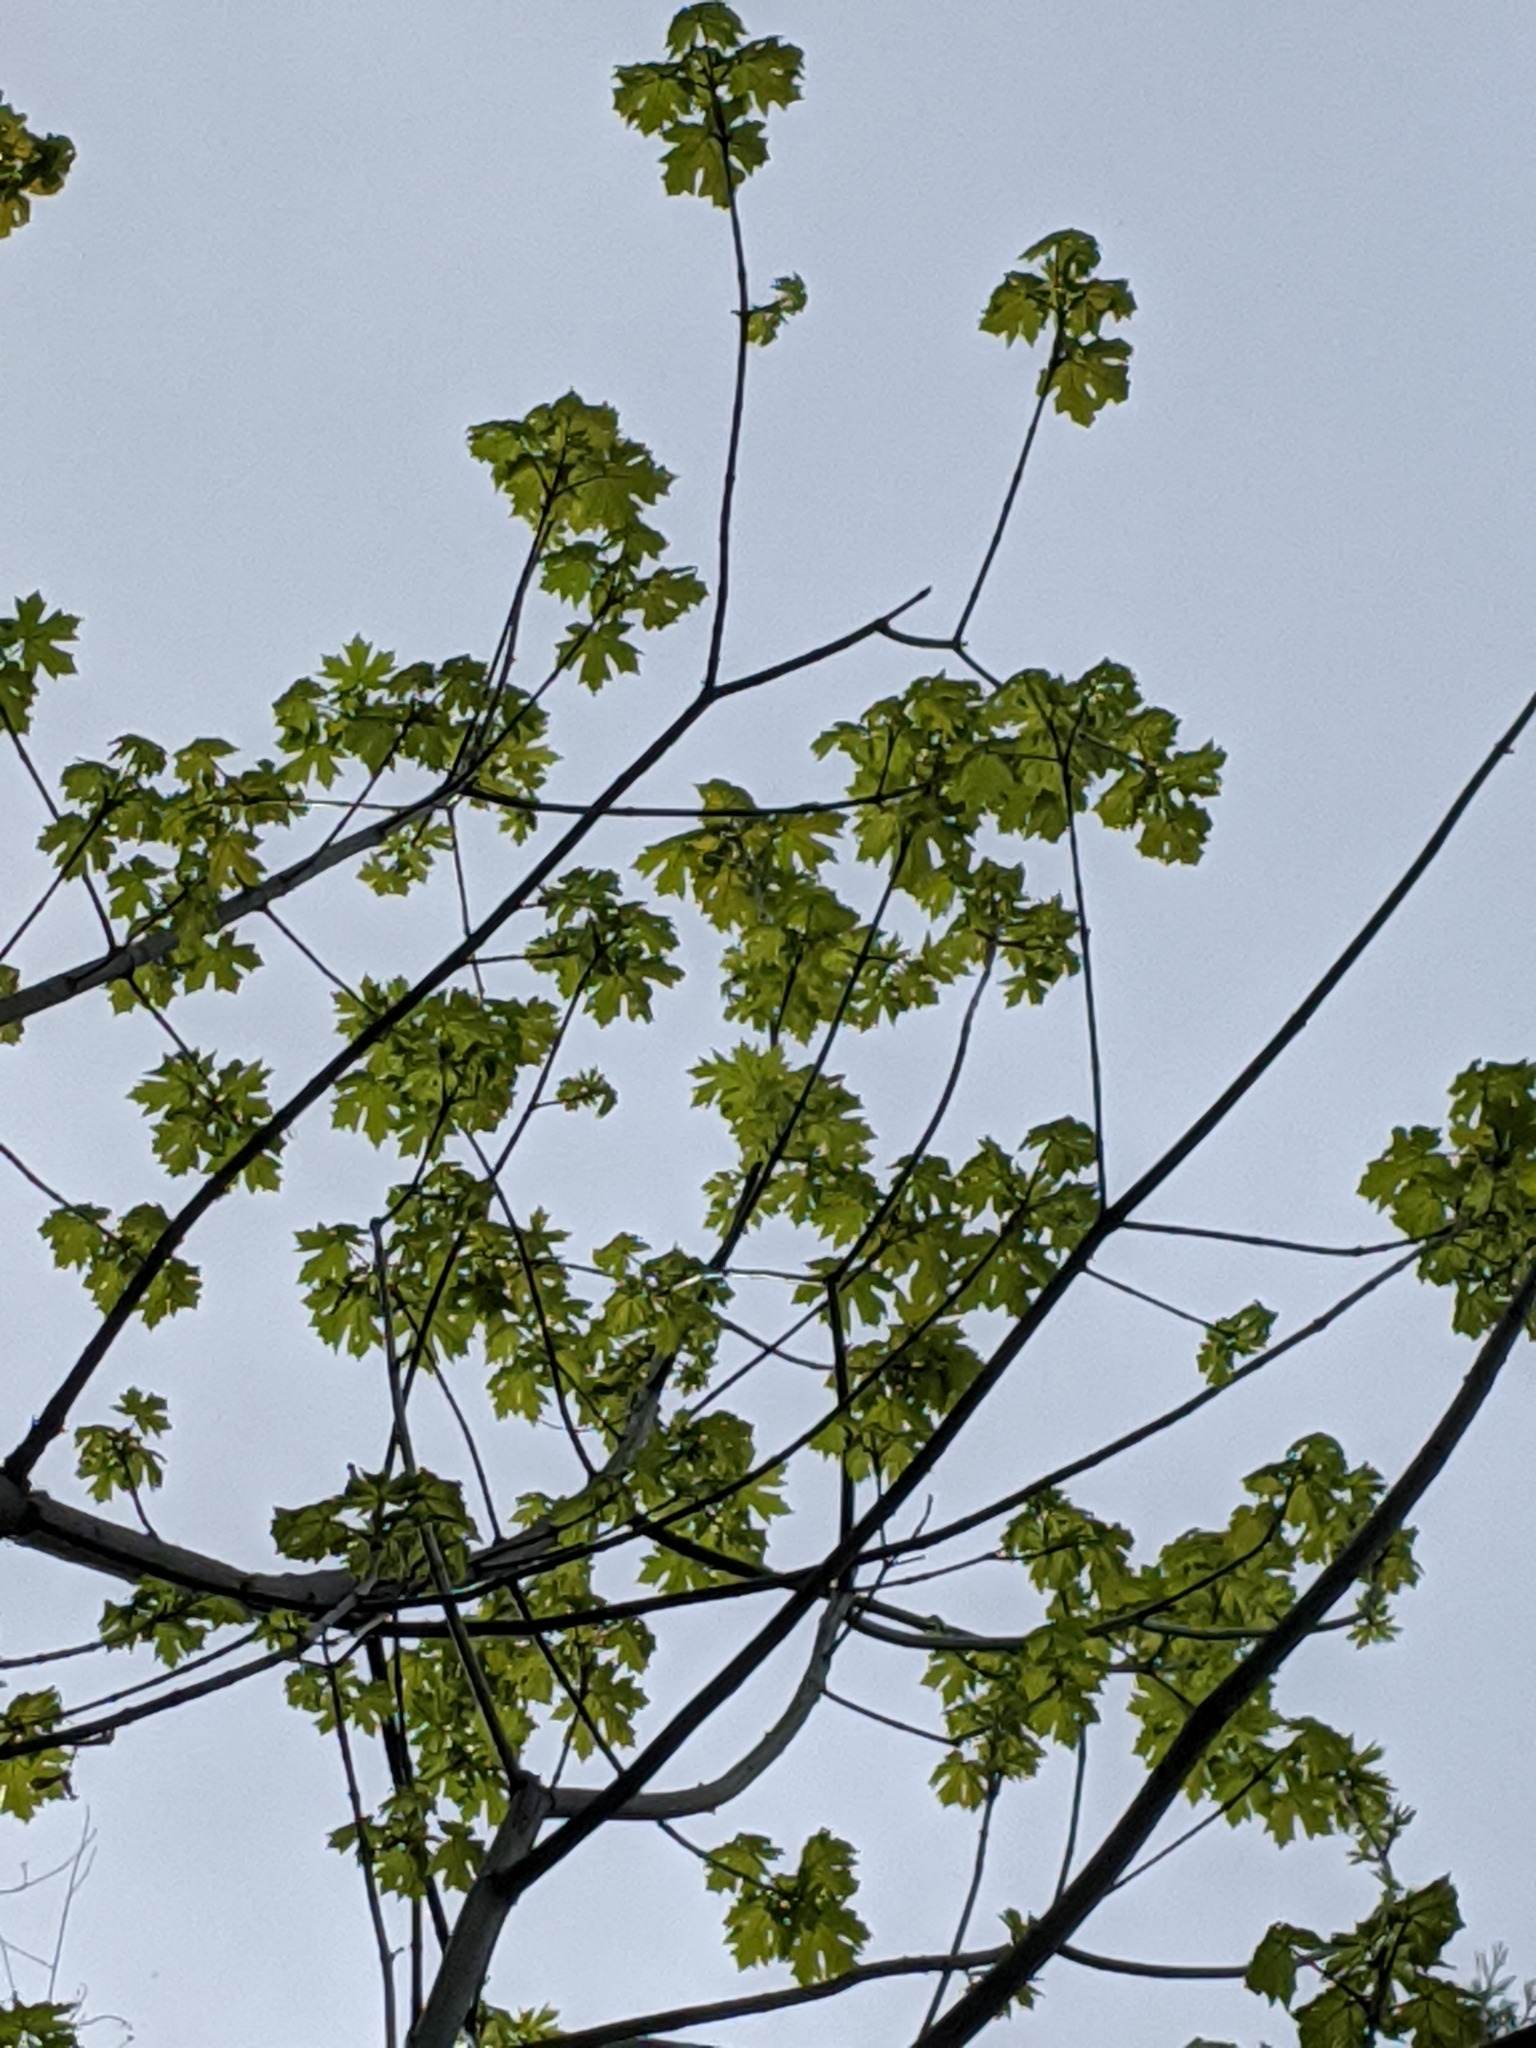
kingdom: Plantae
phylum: Tracheophyta
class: Magnoliopsida
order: Sapindales
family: Sapindaceae
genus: Acer
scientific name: Acer macrophyllum
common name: Oregon maple
